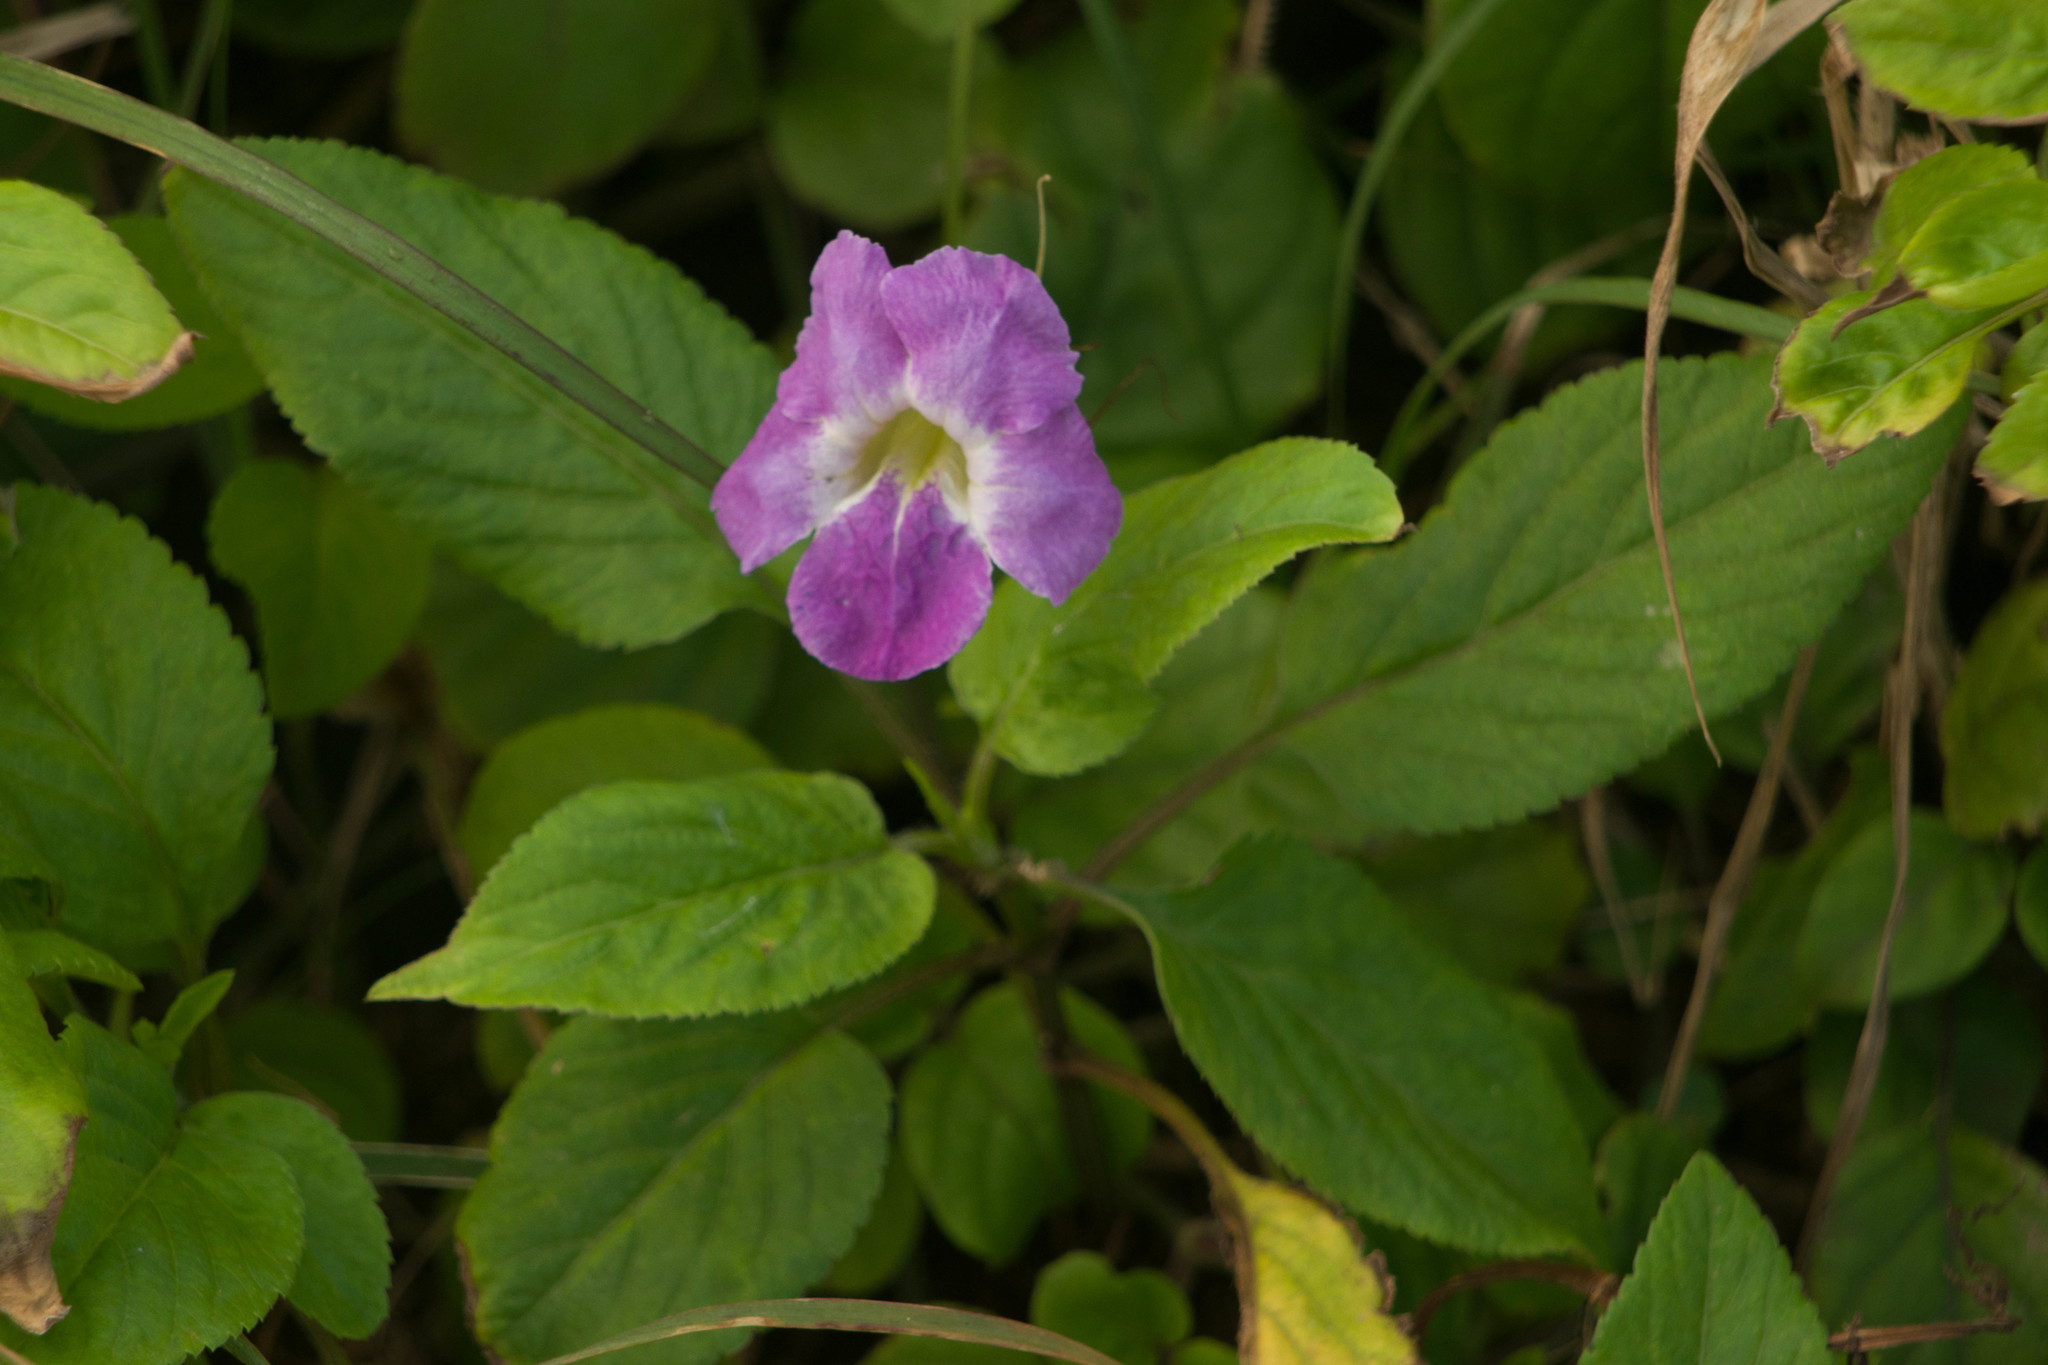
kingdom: Plantae
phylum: Tracheophyta
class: Magnoliopsida
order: Lamiales
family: Acanthaceae
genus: Asystasia
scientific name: Asystasia gangetica
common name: Chinese violet
